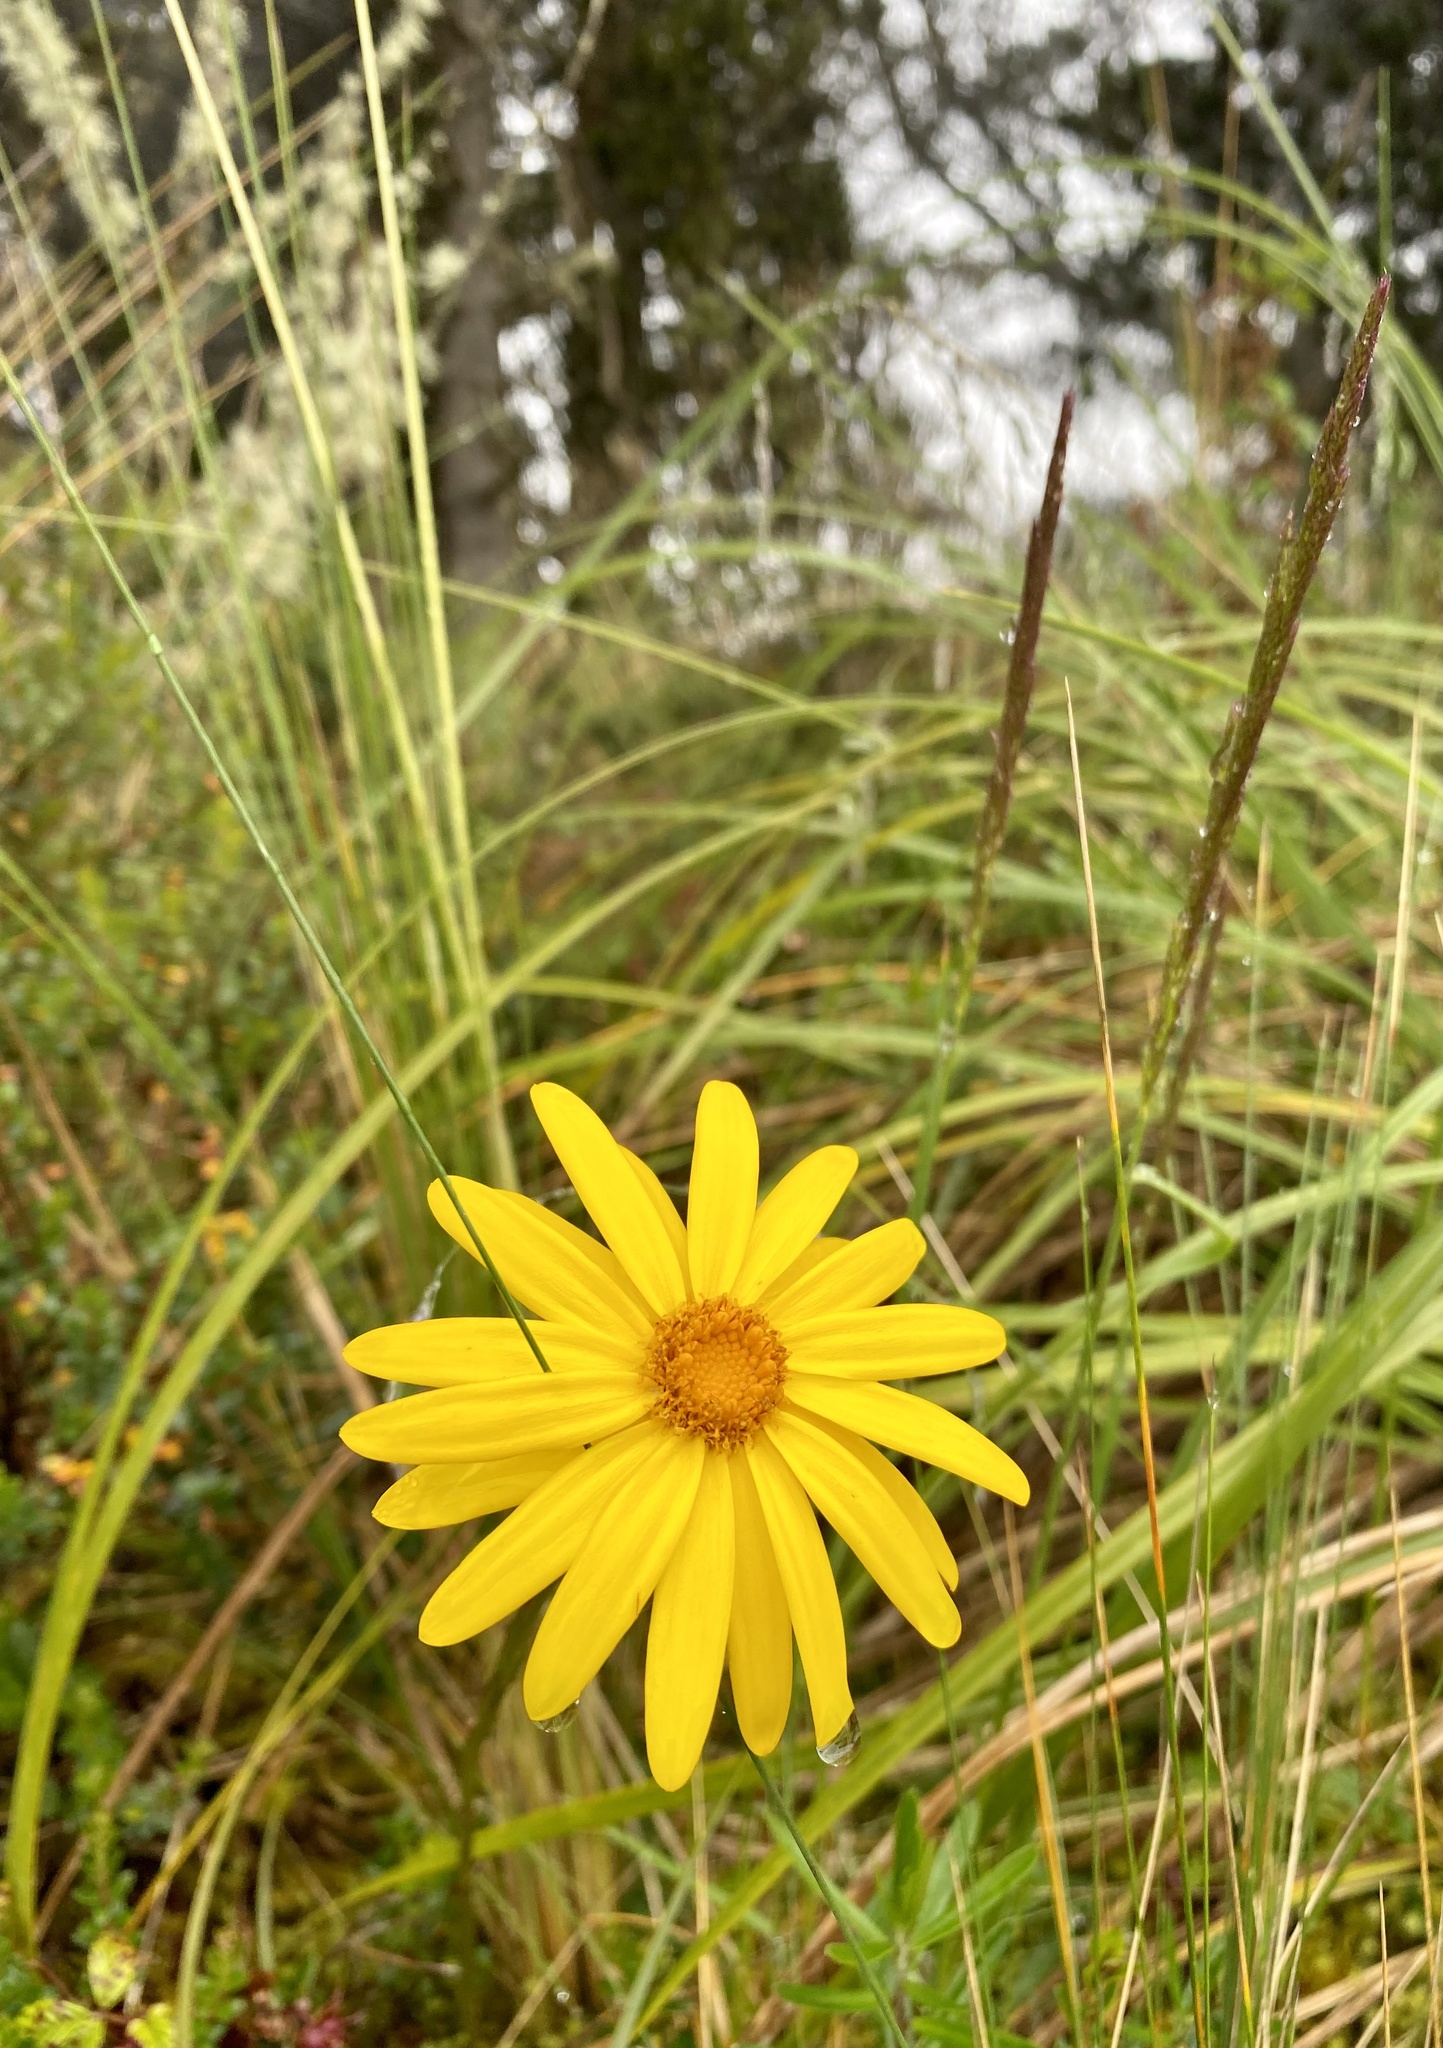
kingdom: Plantae
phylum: Tracheophyta
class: Magnoliopsida
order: Asterales
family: Asteraceae
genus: Dorobaea
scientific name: Dorobaea pimpinellifolia
